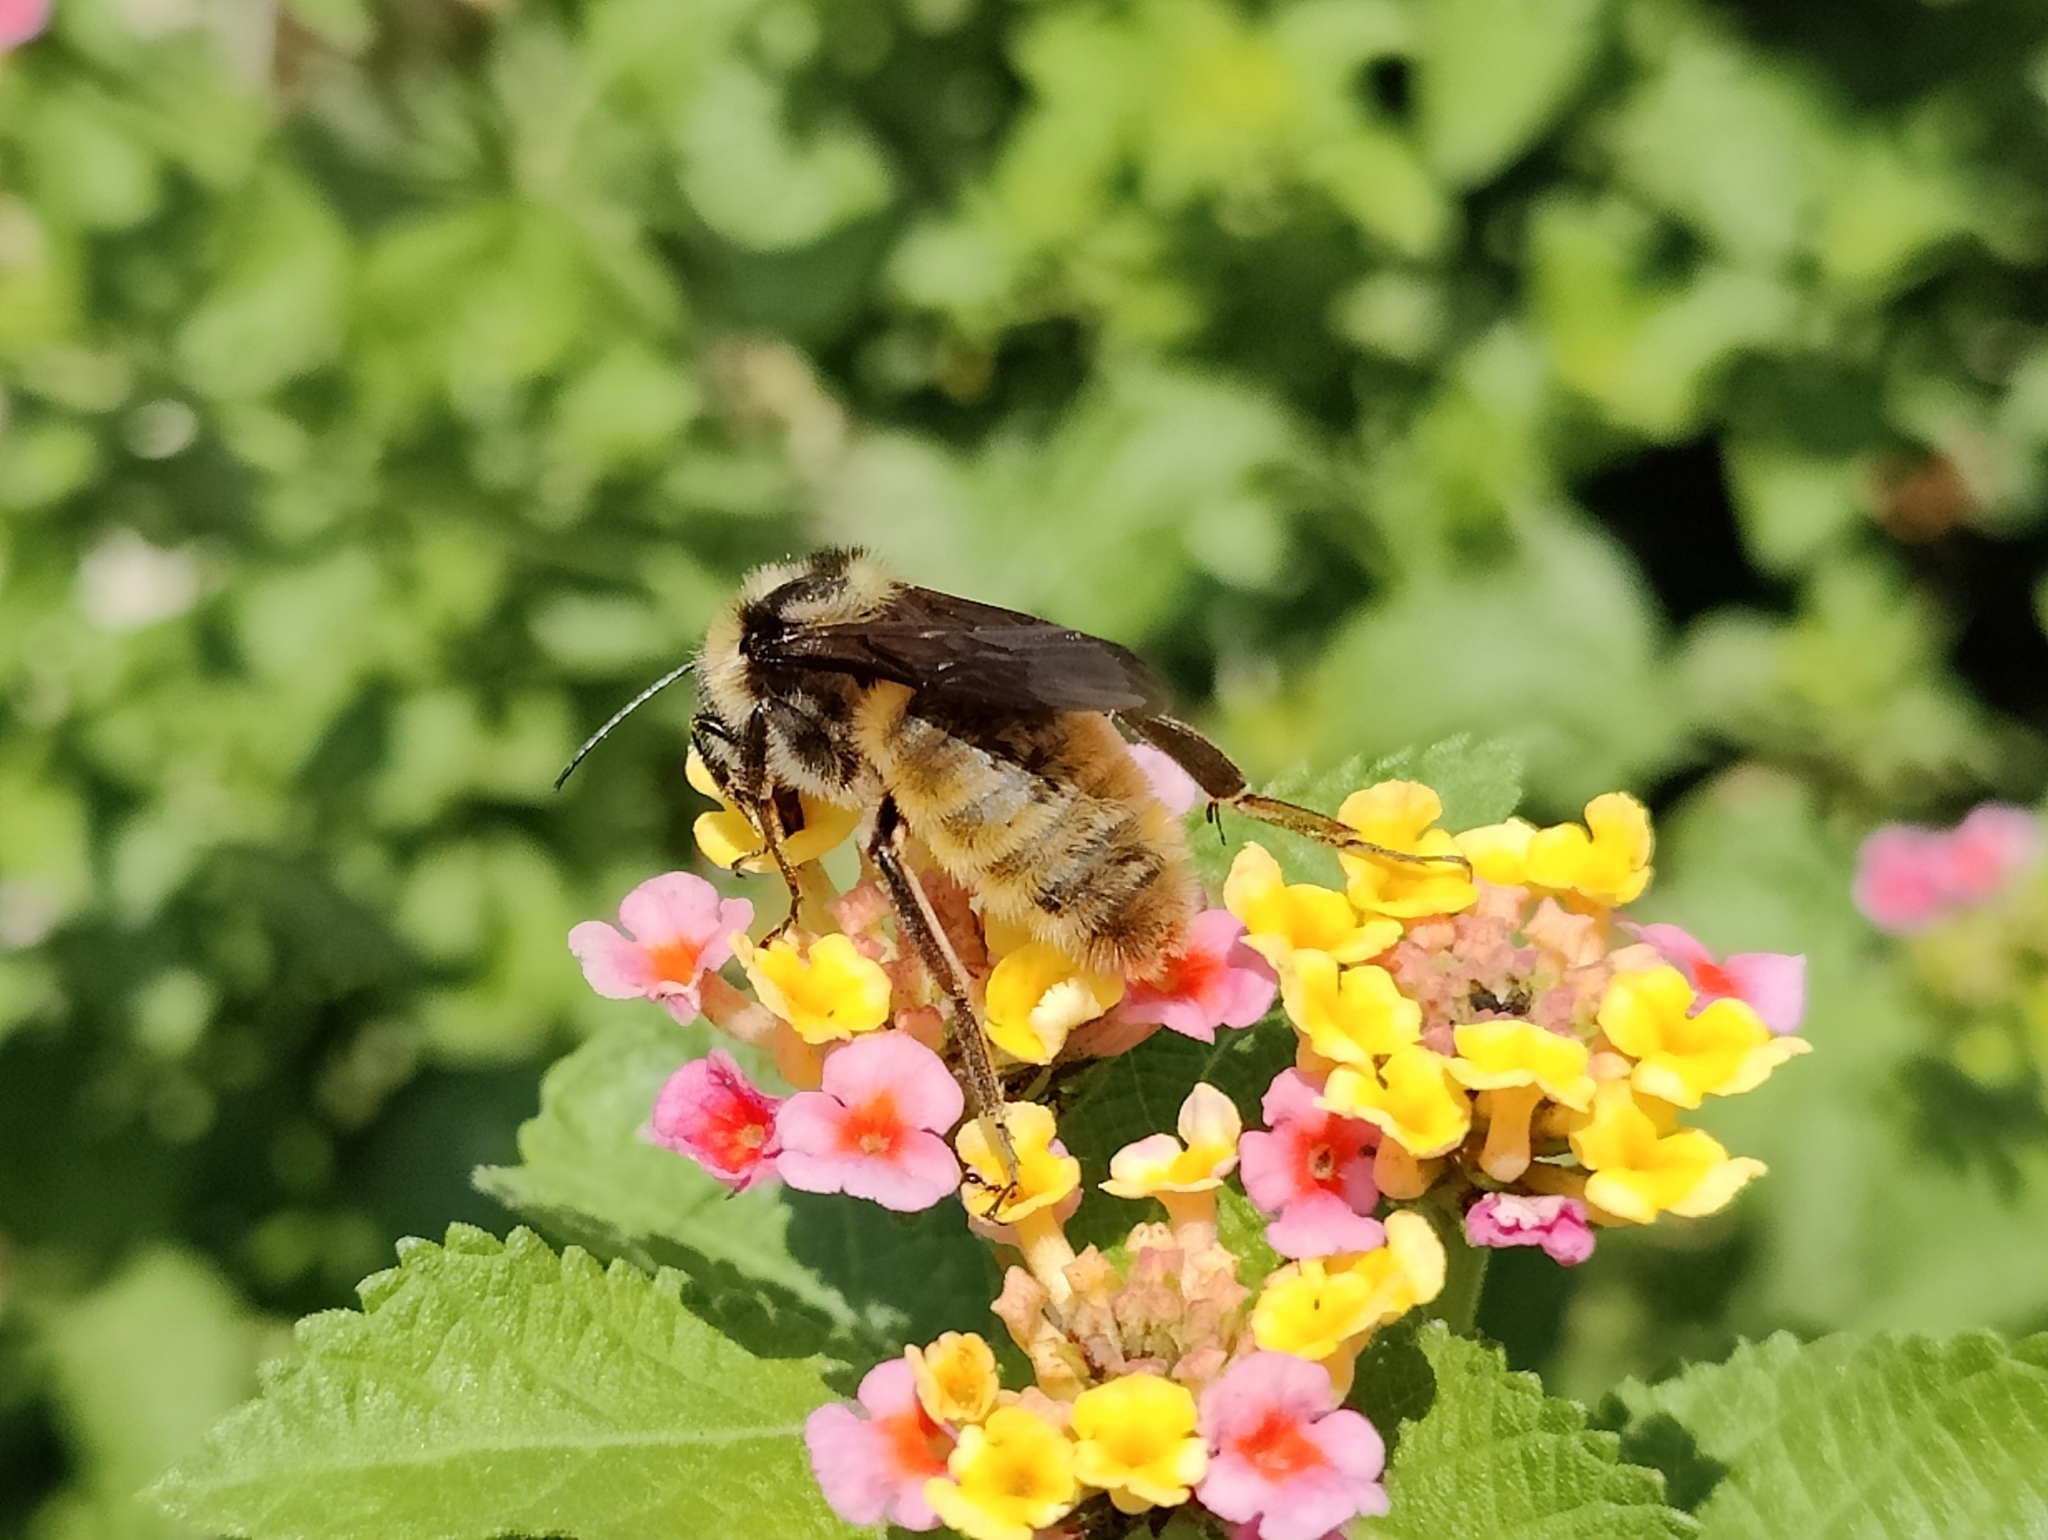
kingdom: Animalia
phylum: Arthropoda
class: Insecta
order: Hymenoptera
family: Apidae
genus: Bombus
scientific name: Bombus pensylvanicus
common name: Bumble bee
